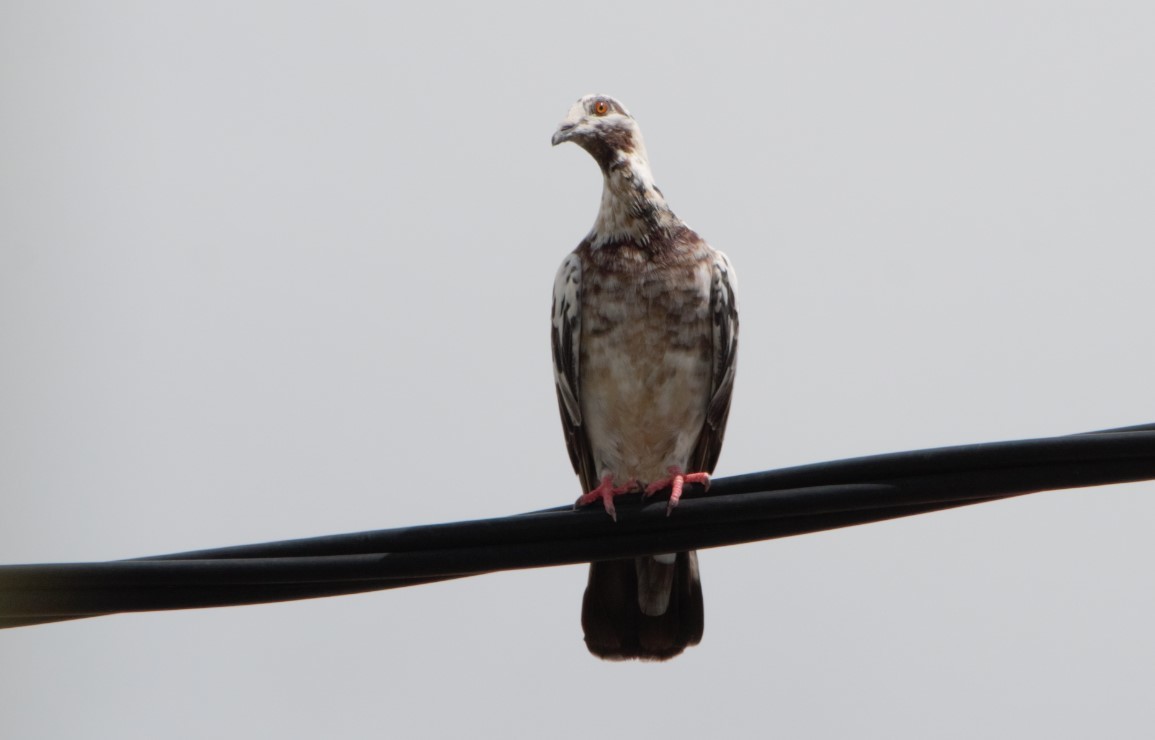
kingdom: Animalia
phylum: Chordata
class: Aves
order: Columbiformes
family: Columbidae
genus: Columba
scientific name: Columba livia
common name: Rock pigeon
